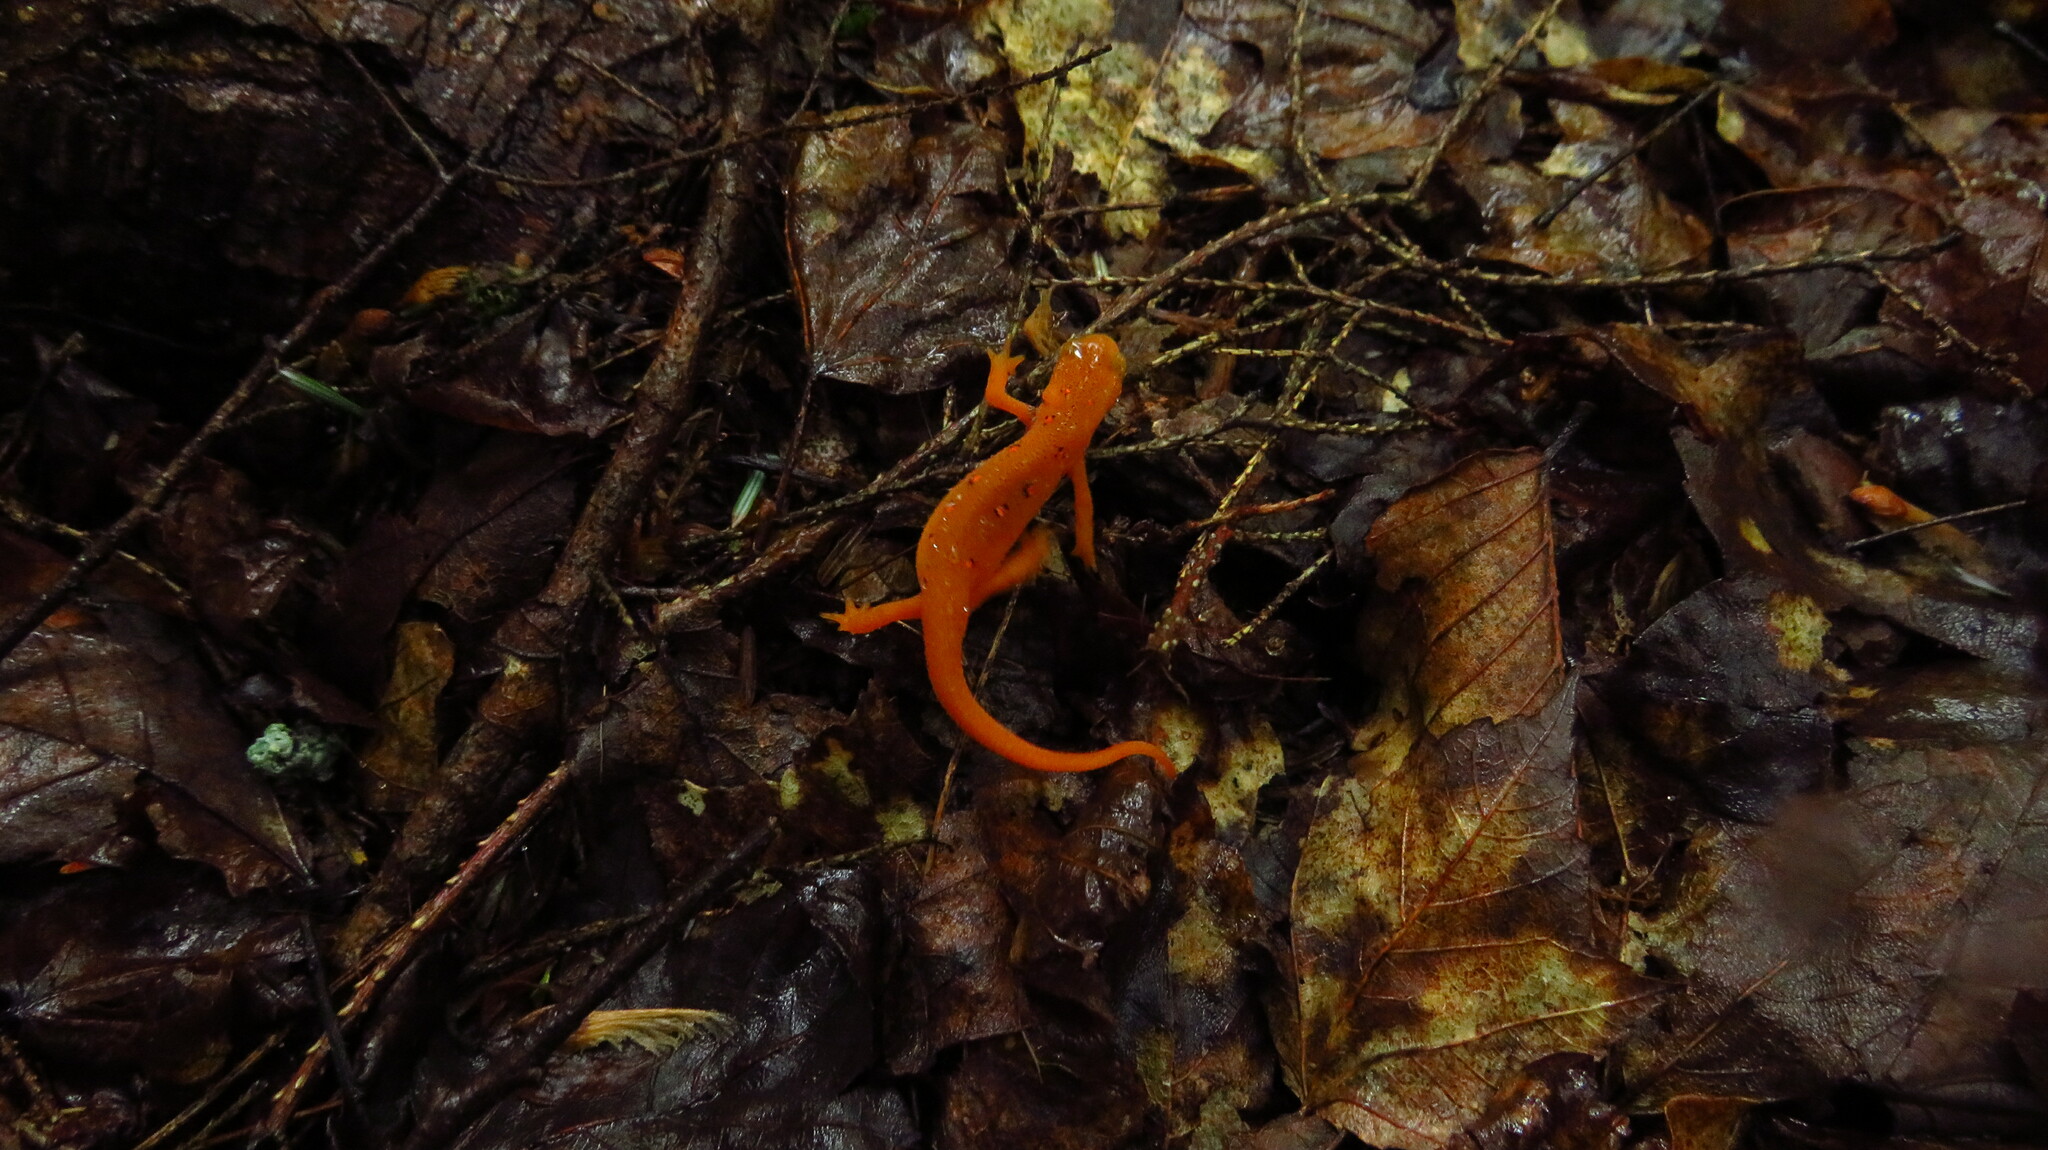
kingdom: Animalia
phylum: Chordata
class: Amphibia
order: Caudata
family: Salamandridae
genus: Notophthalmus
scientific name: Notophthalmus viridescens
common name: Eastern newt
